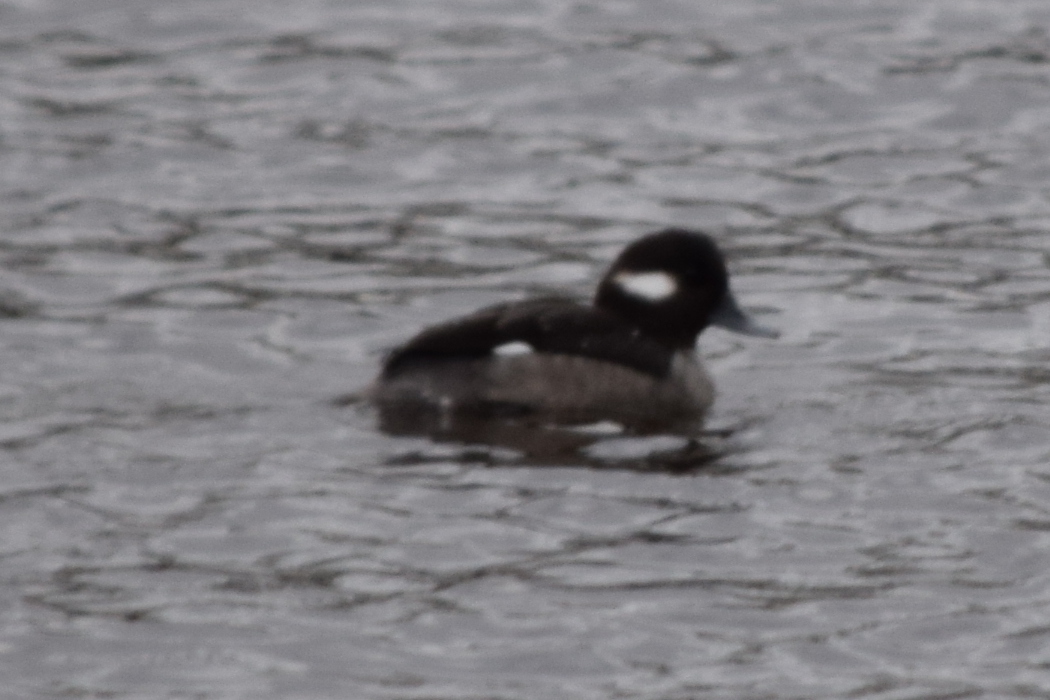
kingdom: Animalia
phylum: Chordata
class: Aves
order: Anseriformes
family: Anatidae
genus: Bucephala
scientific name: Bucephala albeola
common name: Bufflehead
